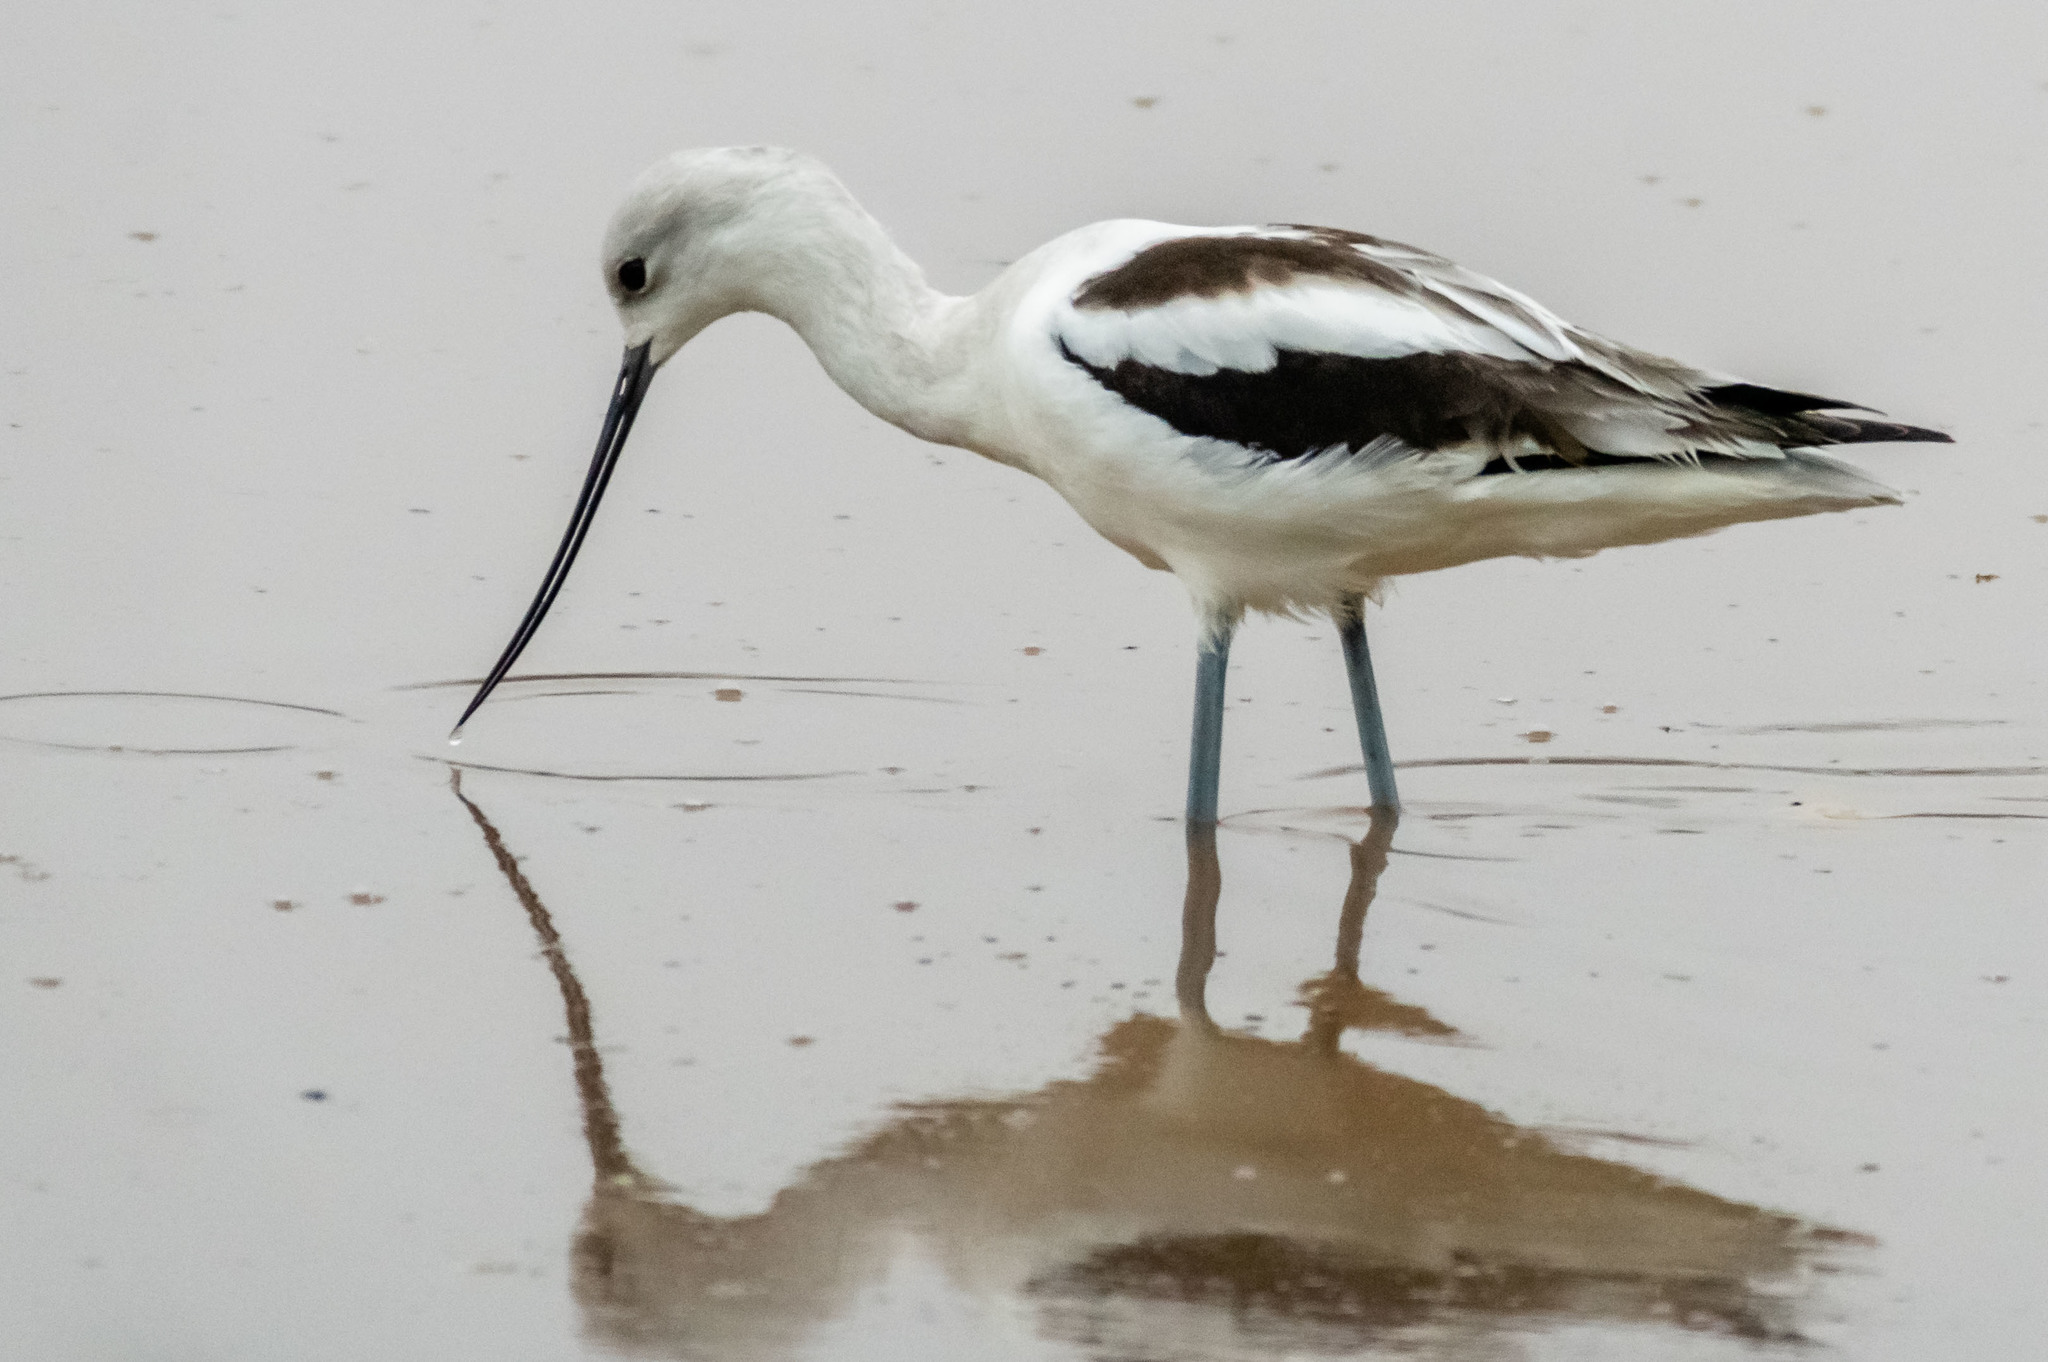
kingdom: Animalia
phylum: Chordata
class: Aves
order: Charadriiformes
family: Recurvirostridae
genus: Recurvirostra
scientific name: Recurvirostra americana
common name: American avocet
